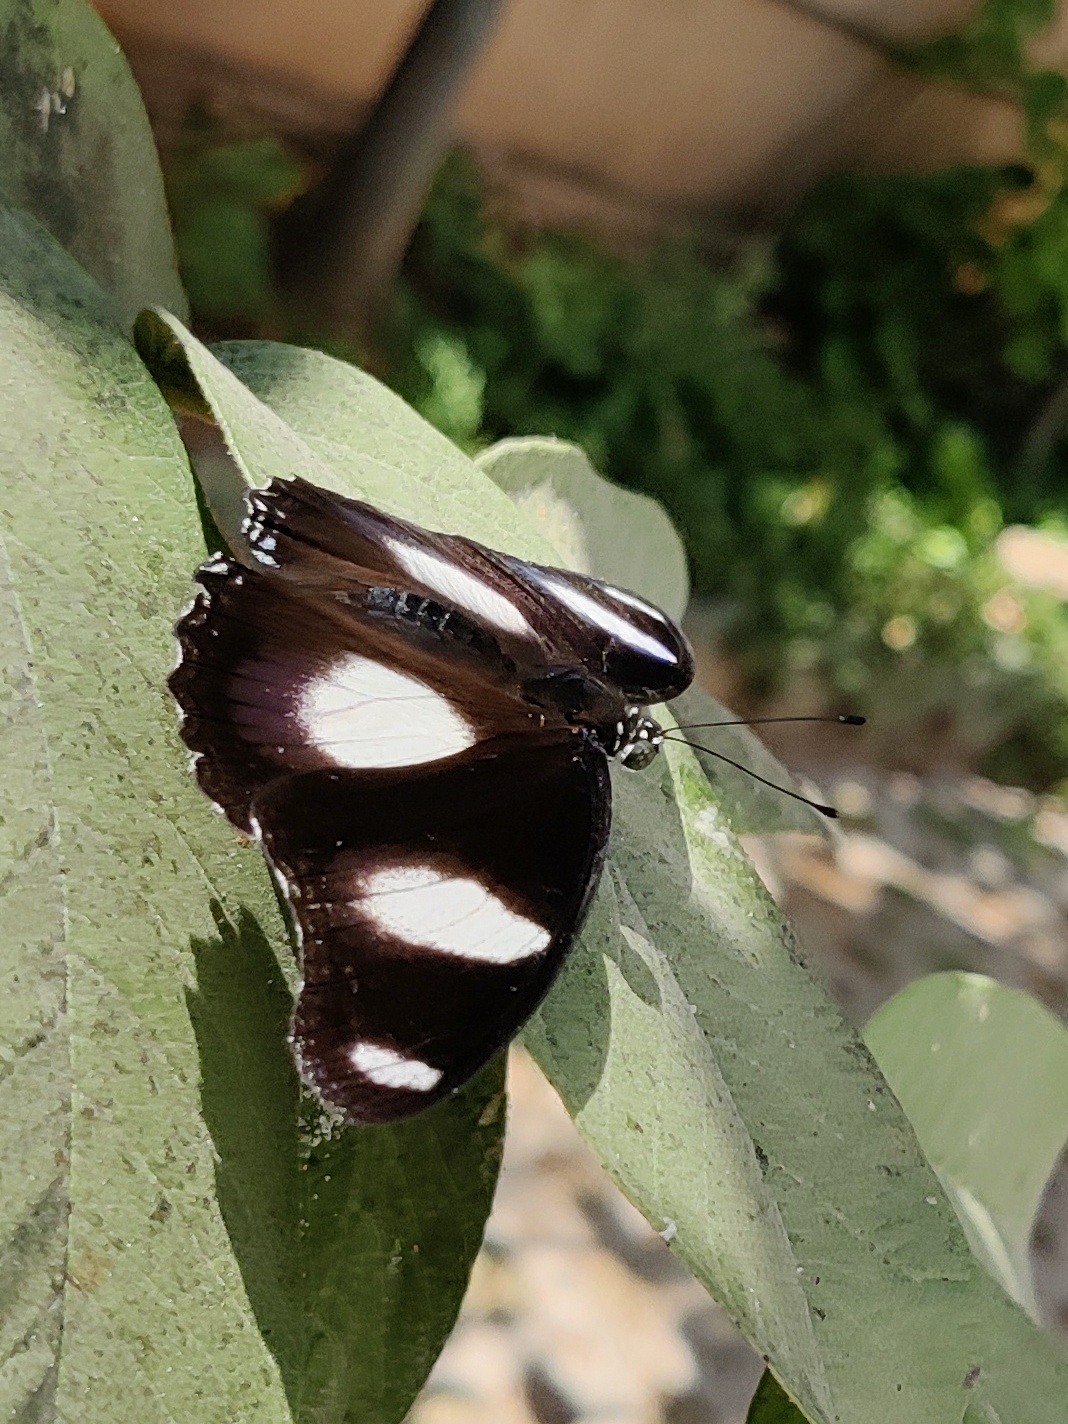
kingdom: Animalia
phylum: Arthropoda
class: Insecta
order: Lepidoptera
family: Nymphalidae
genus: Hypolimnas
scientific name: Hypolimnas misippus
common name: False plain tiger
